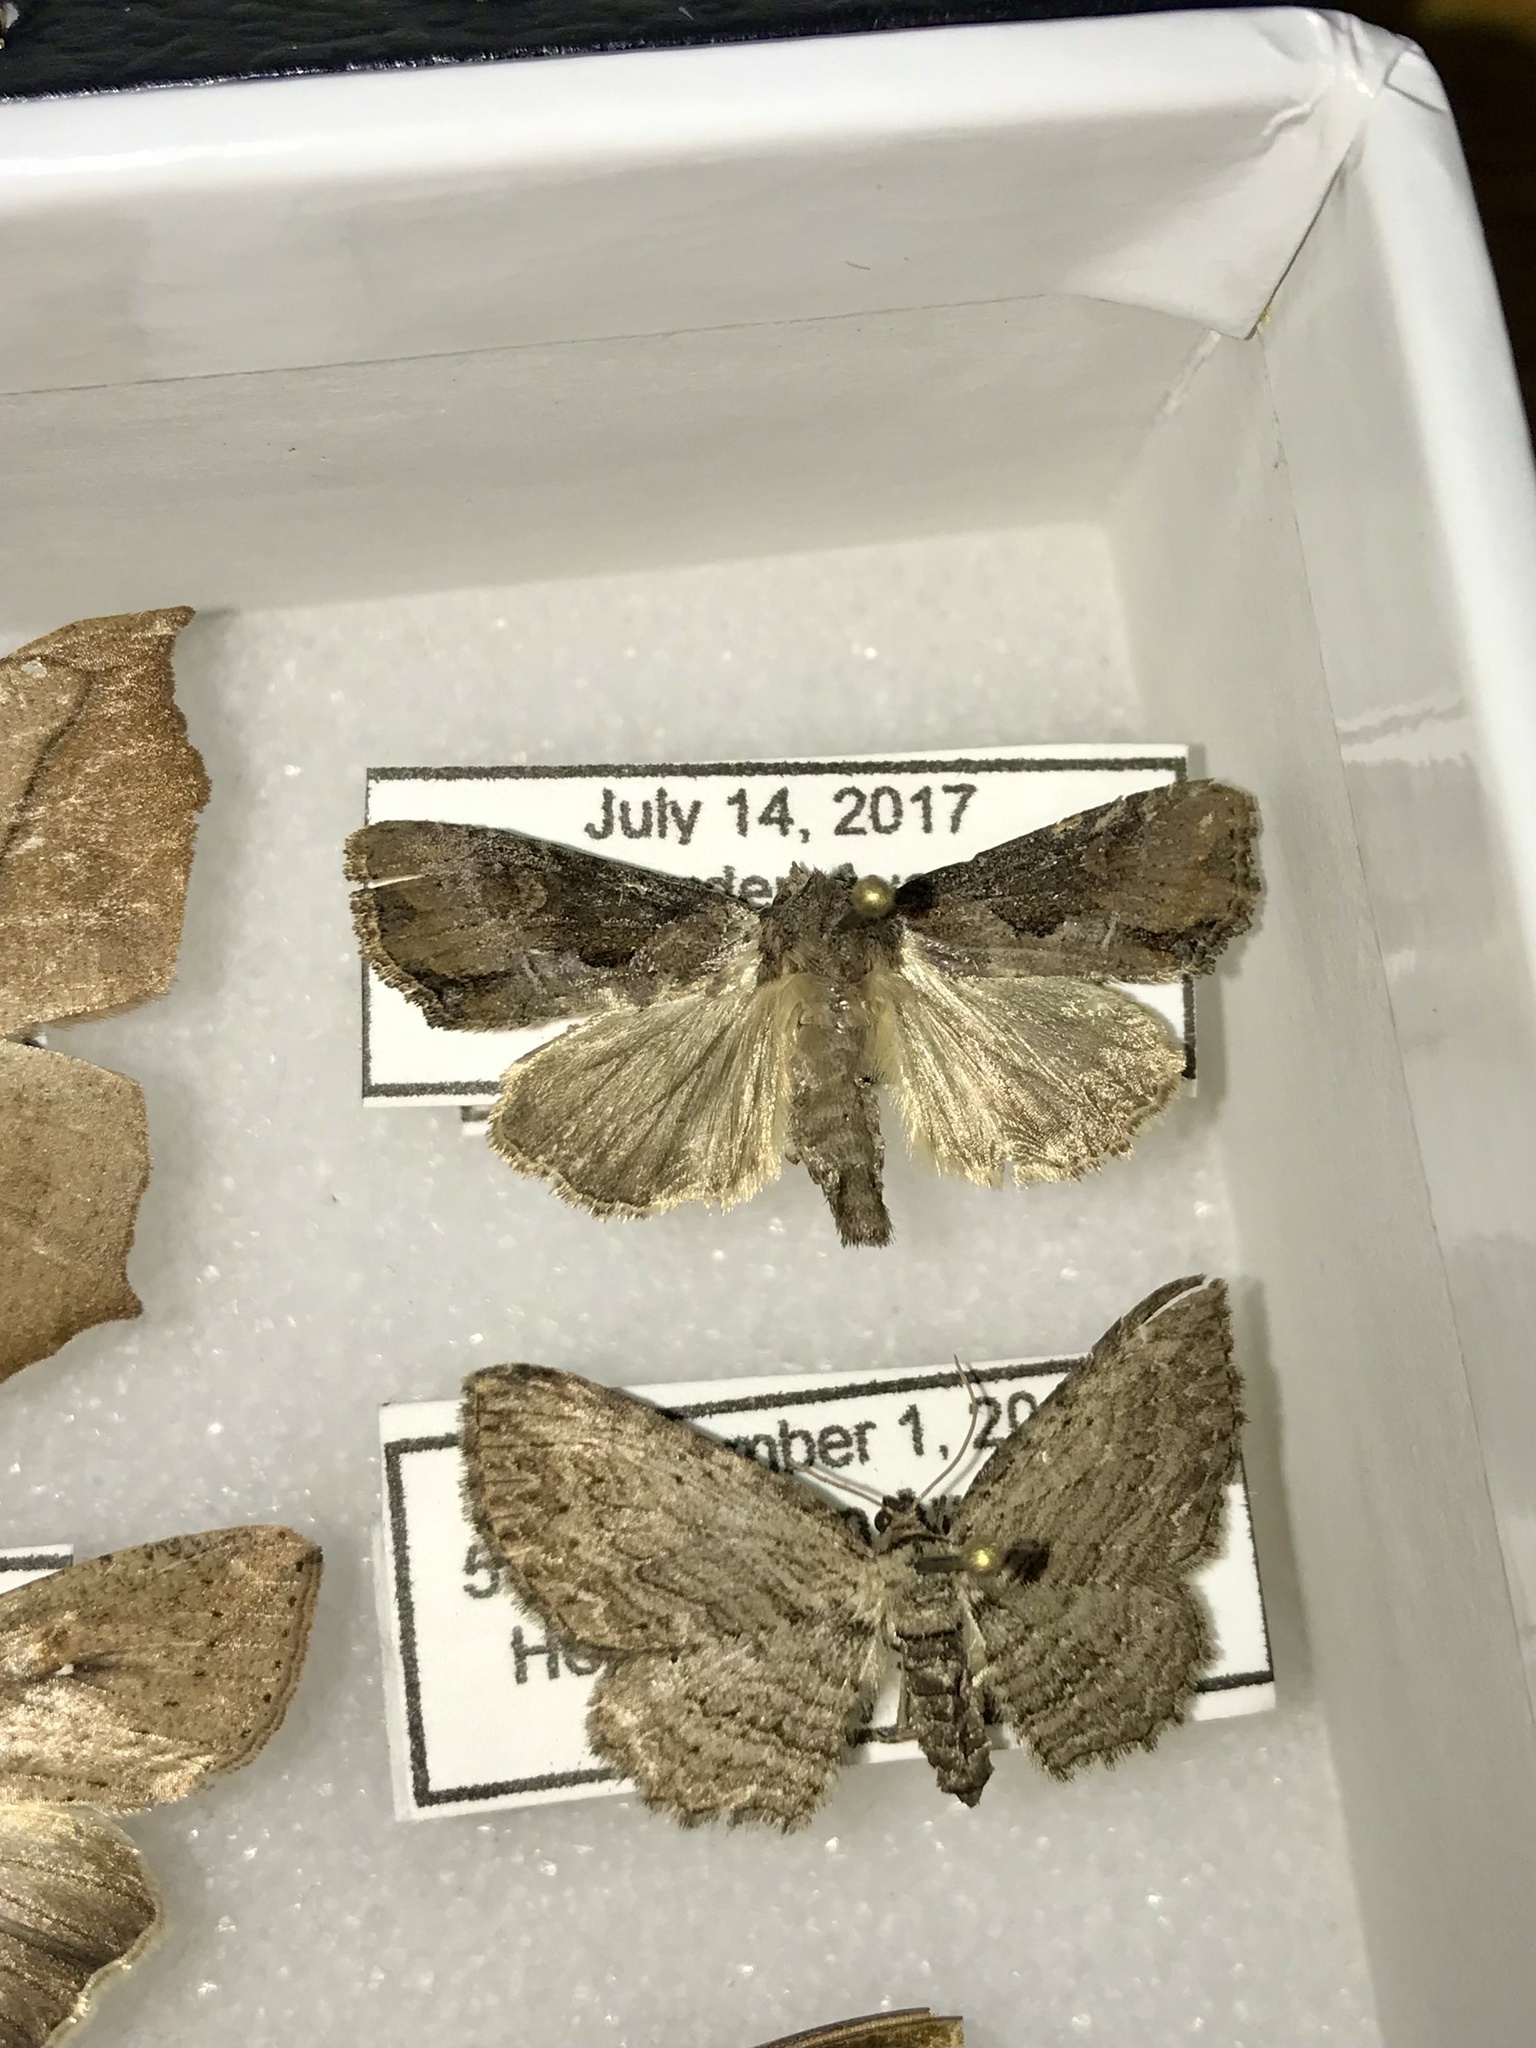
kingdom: Animalia
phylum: Arthropoda
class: Insecta
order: Lepidoptera
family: Noctuidae
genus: Lateroligia
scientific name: Lateroligia ophiogramma
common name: Double lobed
